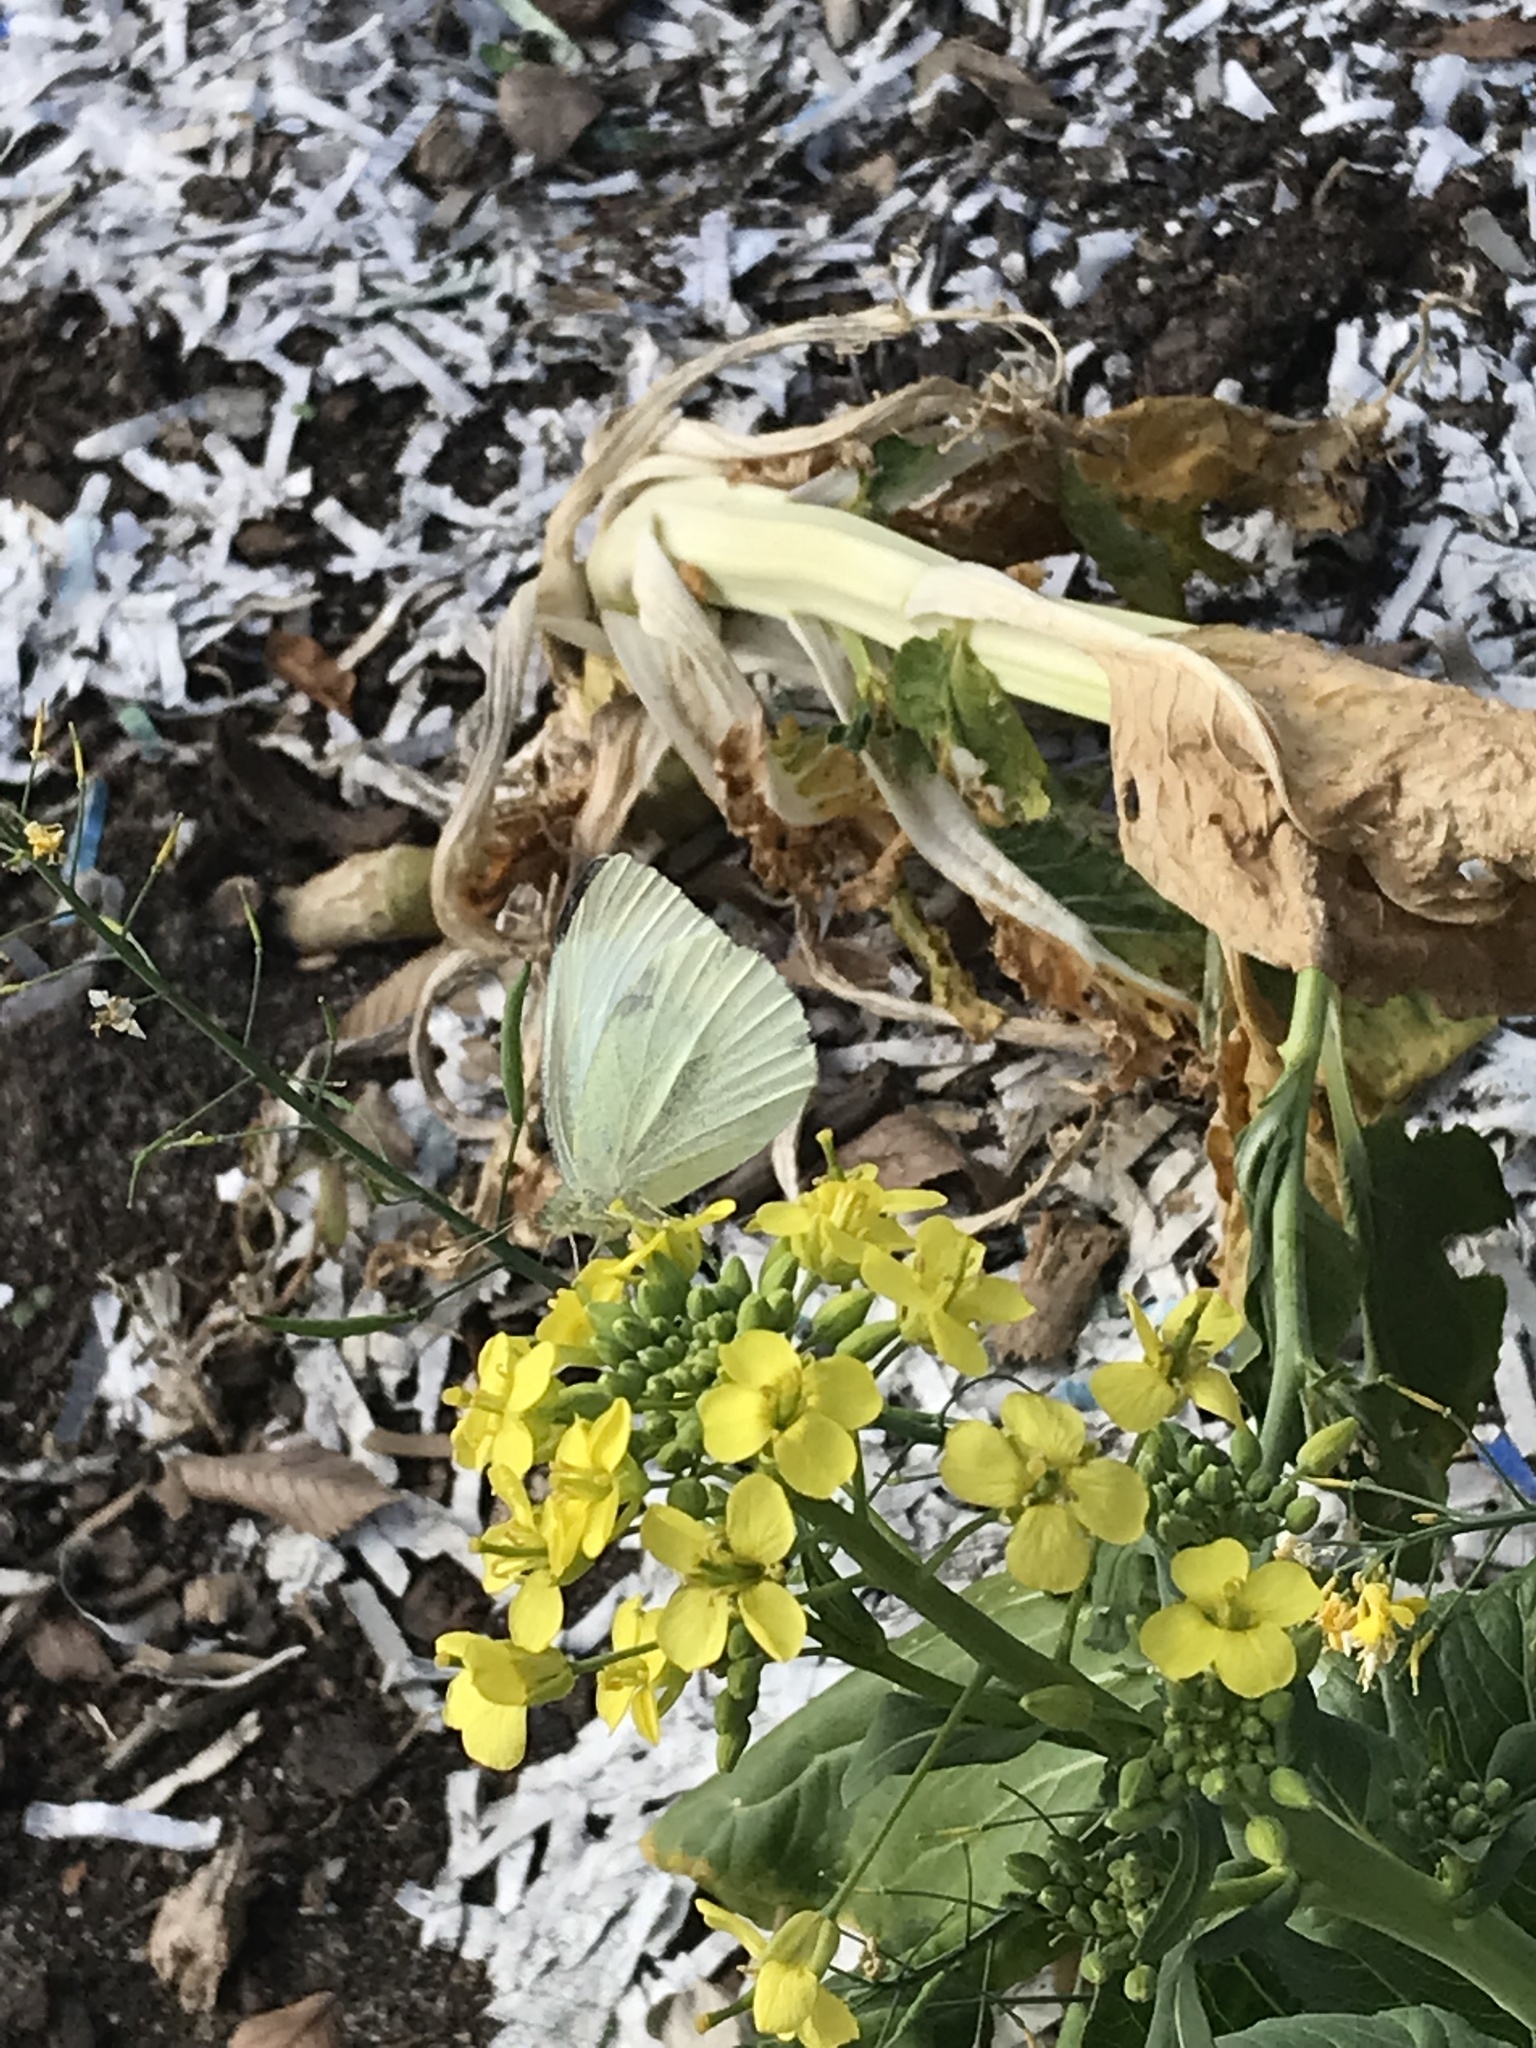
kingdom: Animalia
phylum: Arthropoda
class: Insecta
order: Lepidoptera
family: Pieridae
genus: Pieris
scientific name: Pieris rapae
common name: Small white
